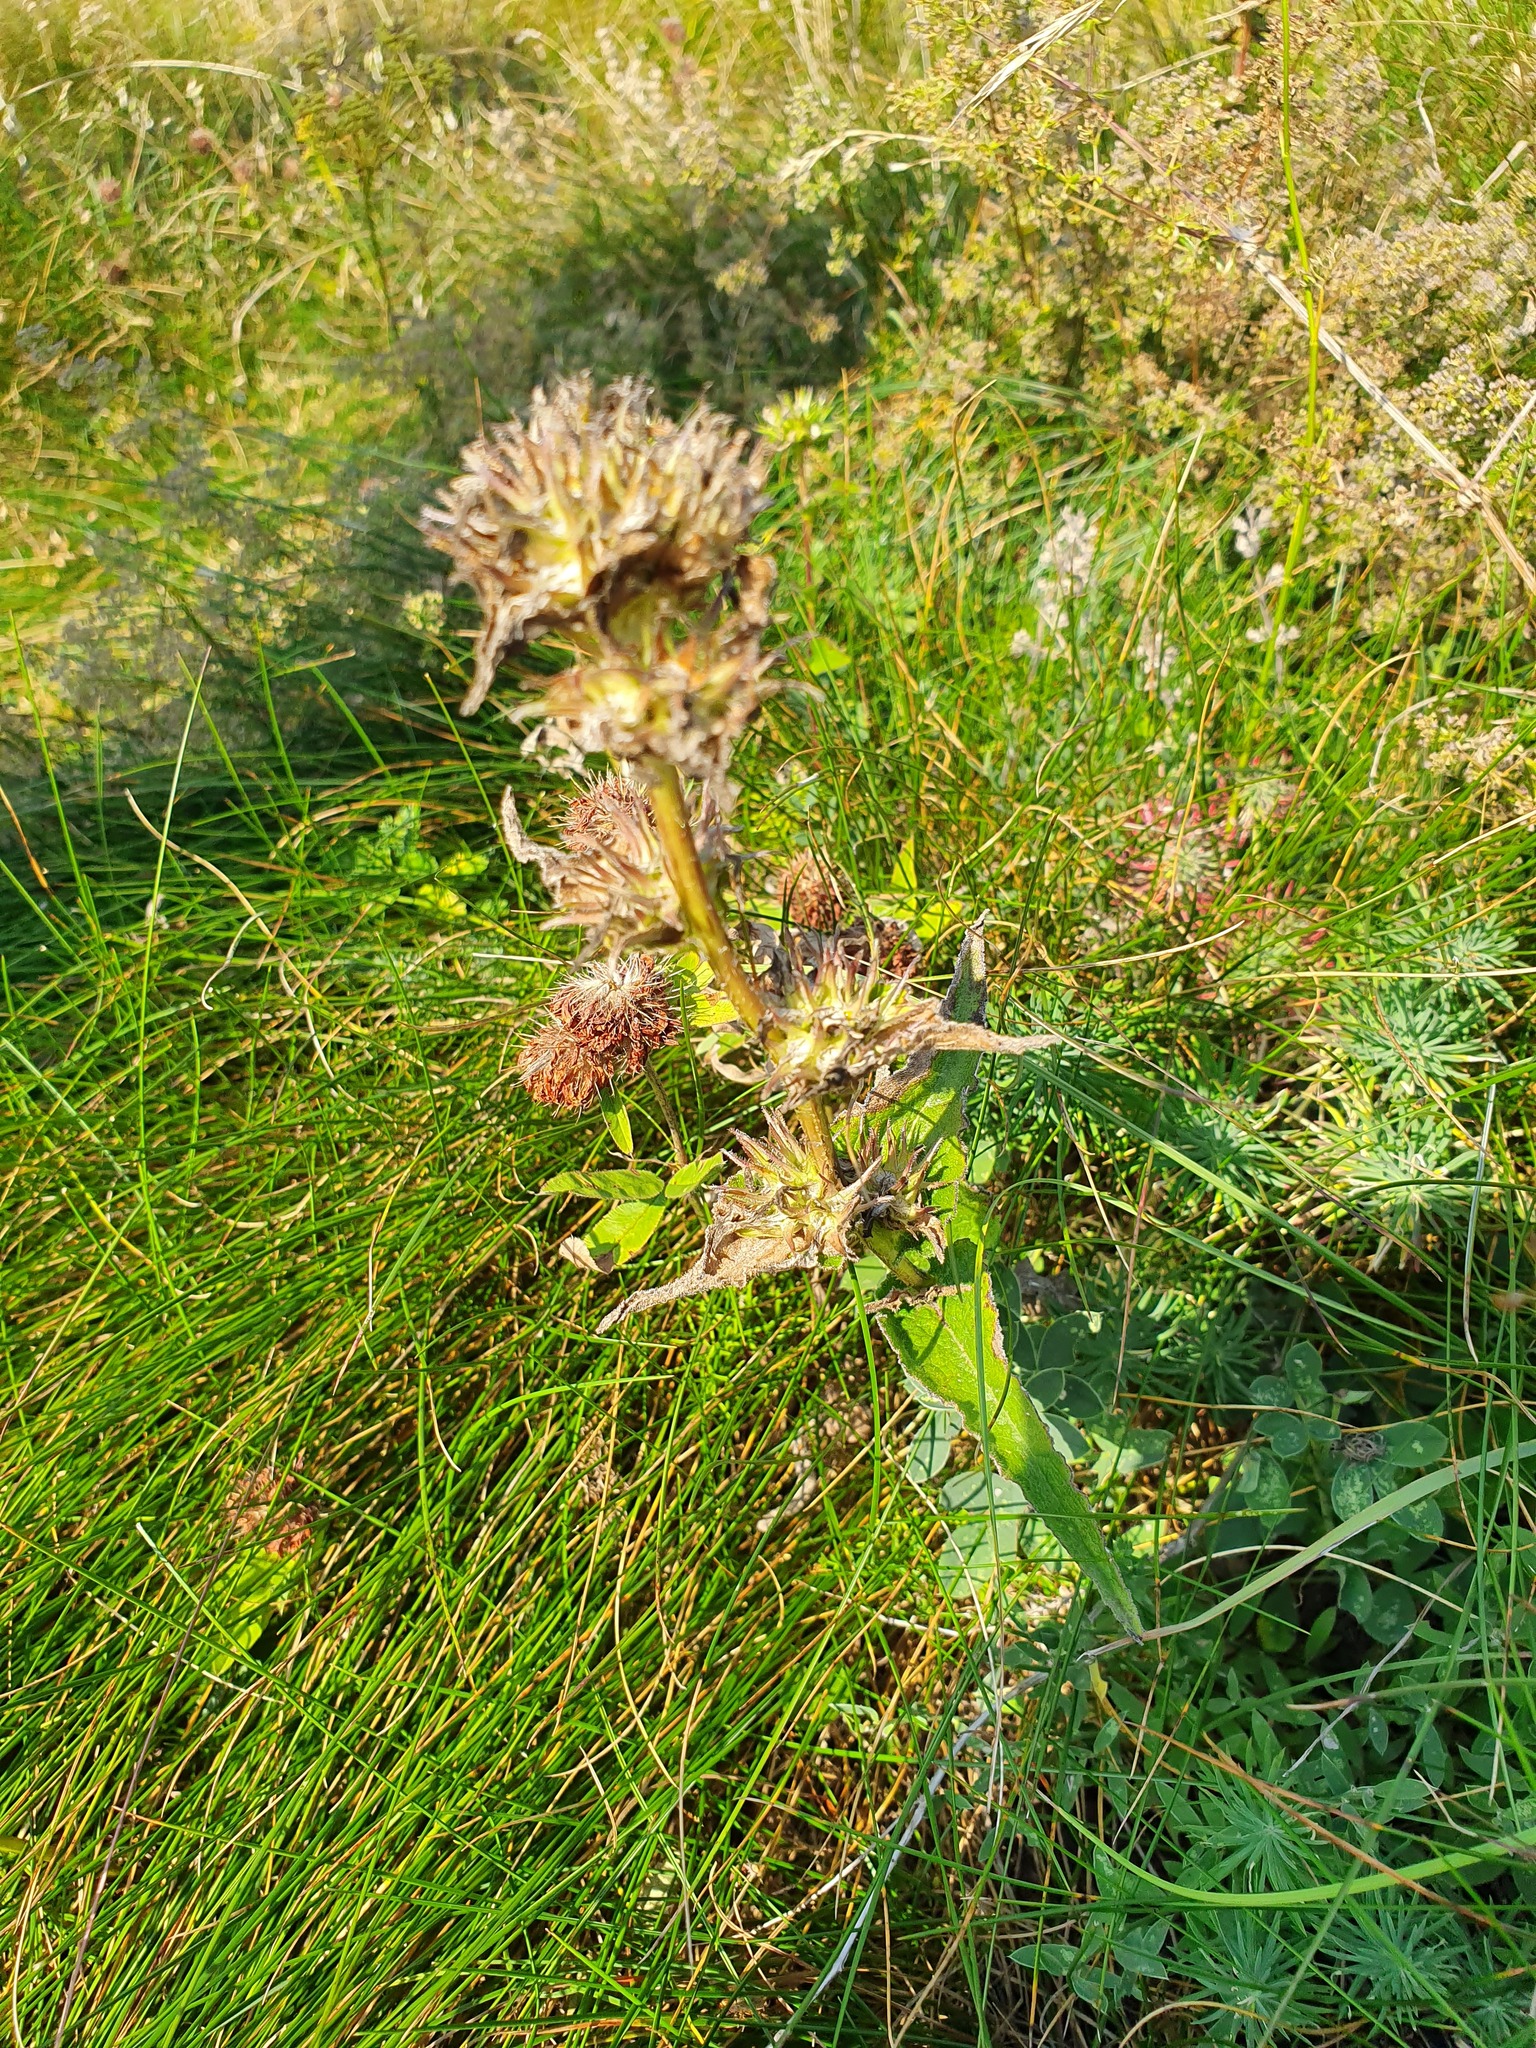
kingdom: Plantae
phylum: Tracheophyta
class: Magnoliopsida
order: Asterales
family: Campanulaceae
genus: Campanula
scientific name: Campanula glomerata
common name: Clustered bellflower
